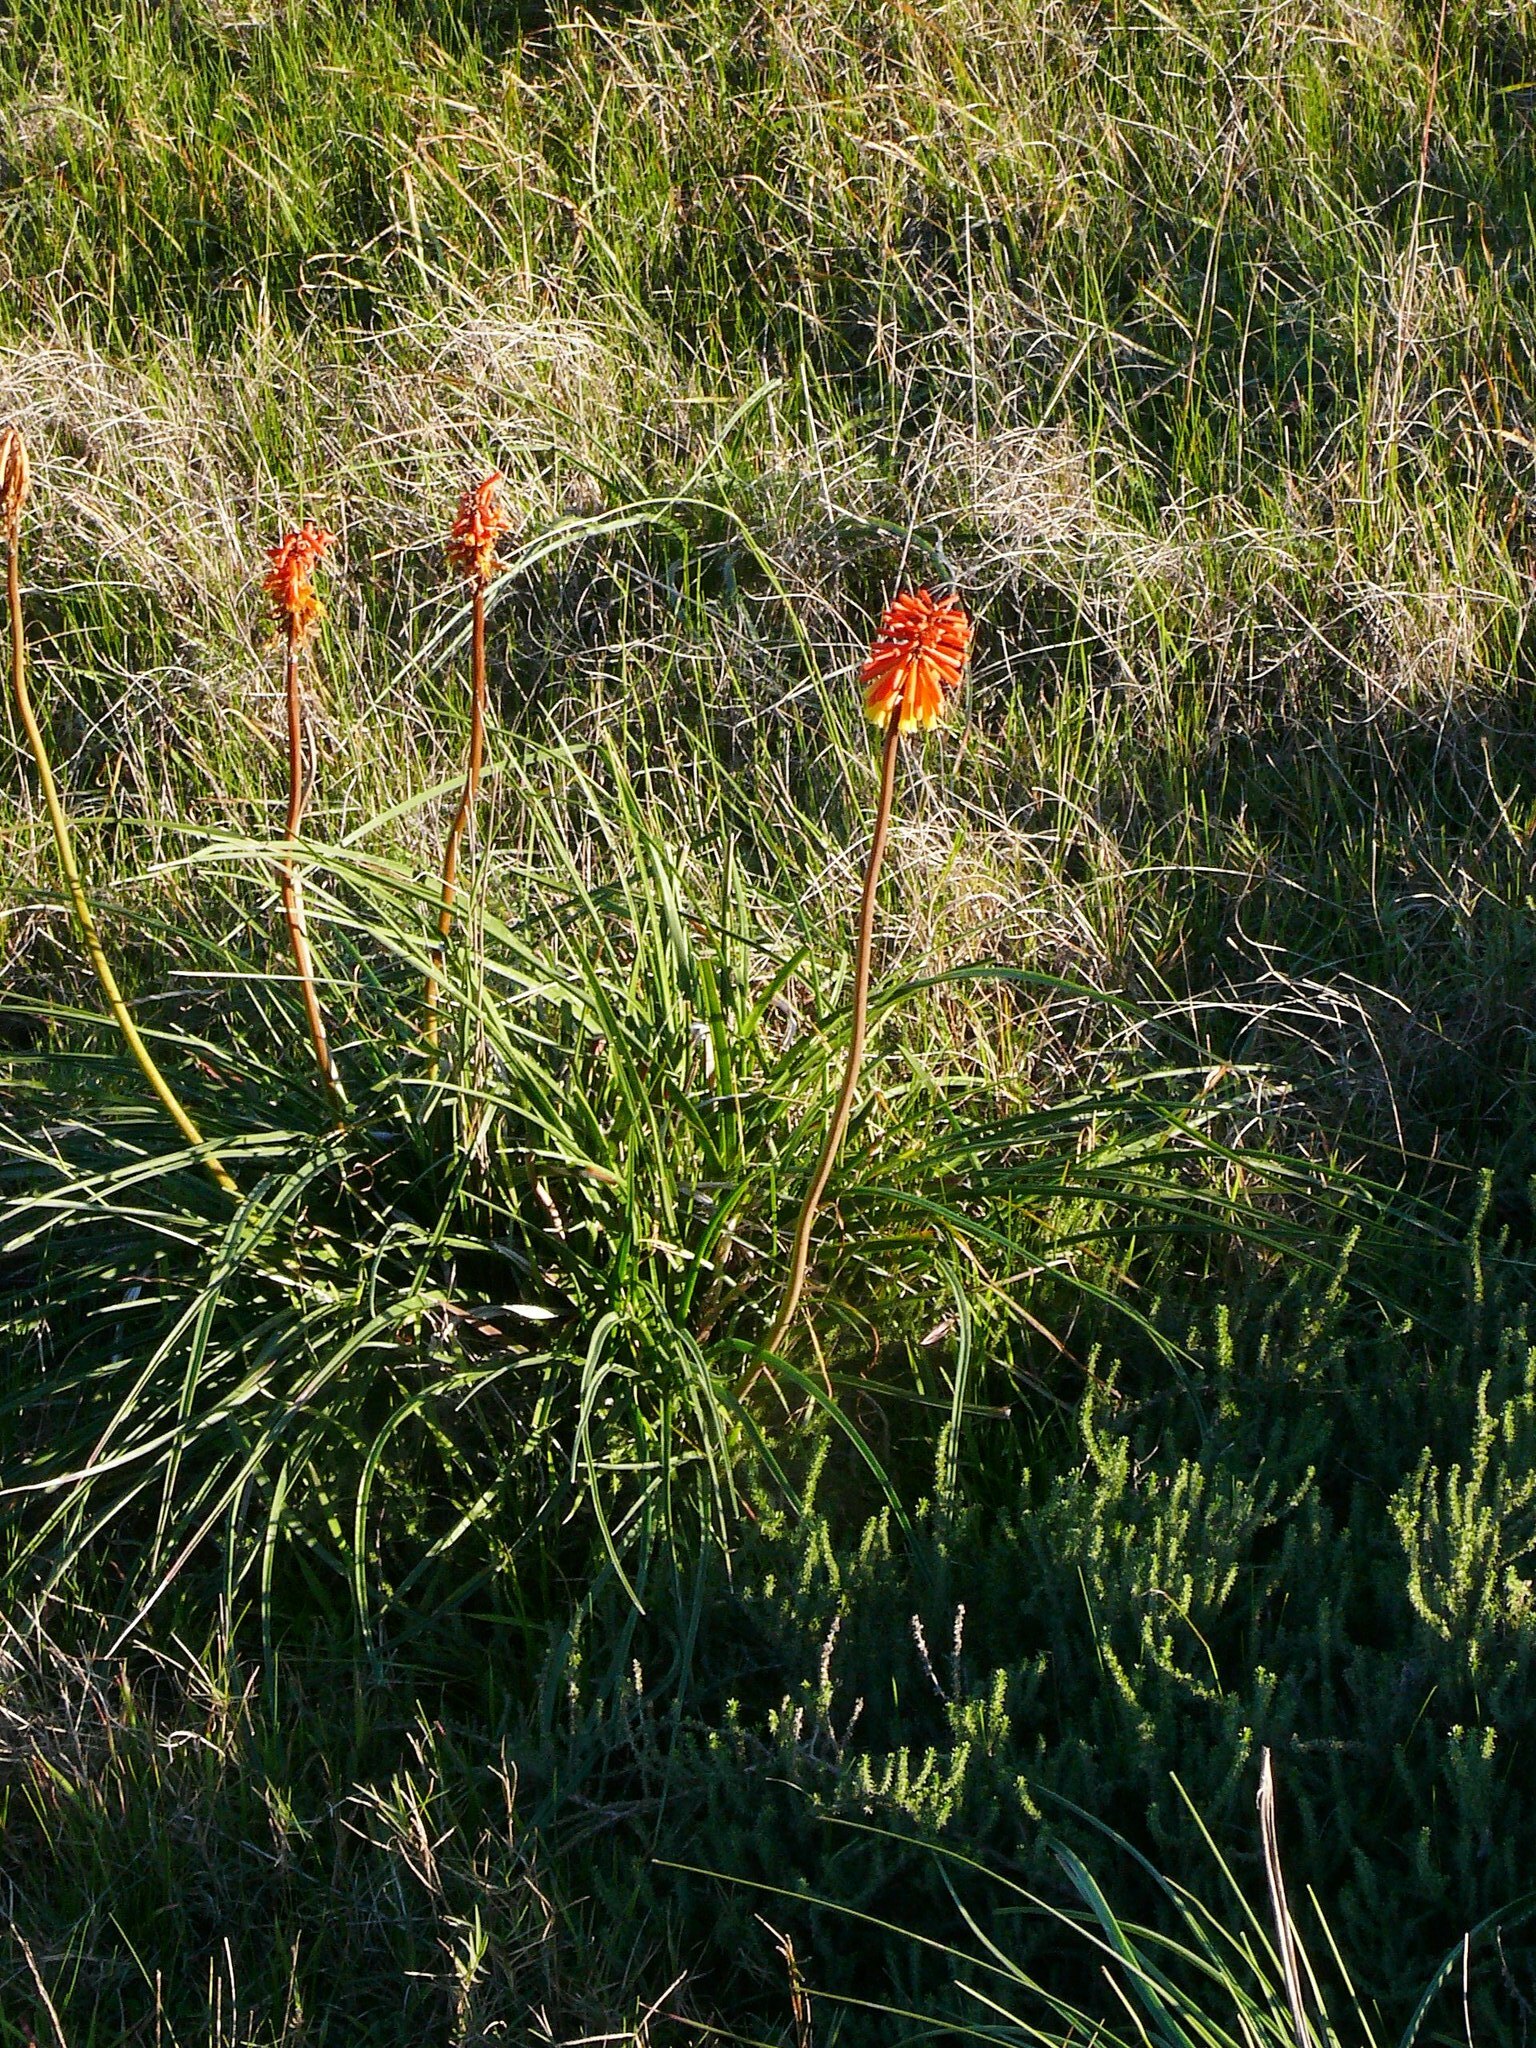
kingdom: Plantae
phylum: Tracheophyta
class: Liliopsida
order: Asparagales
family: Asphodelaceae
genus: Kniphofia
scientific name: Kniphofia uvaria
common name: Red-hot-poker
